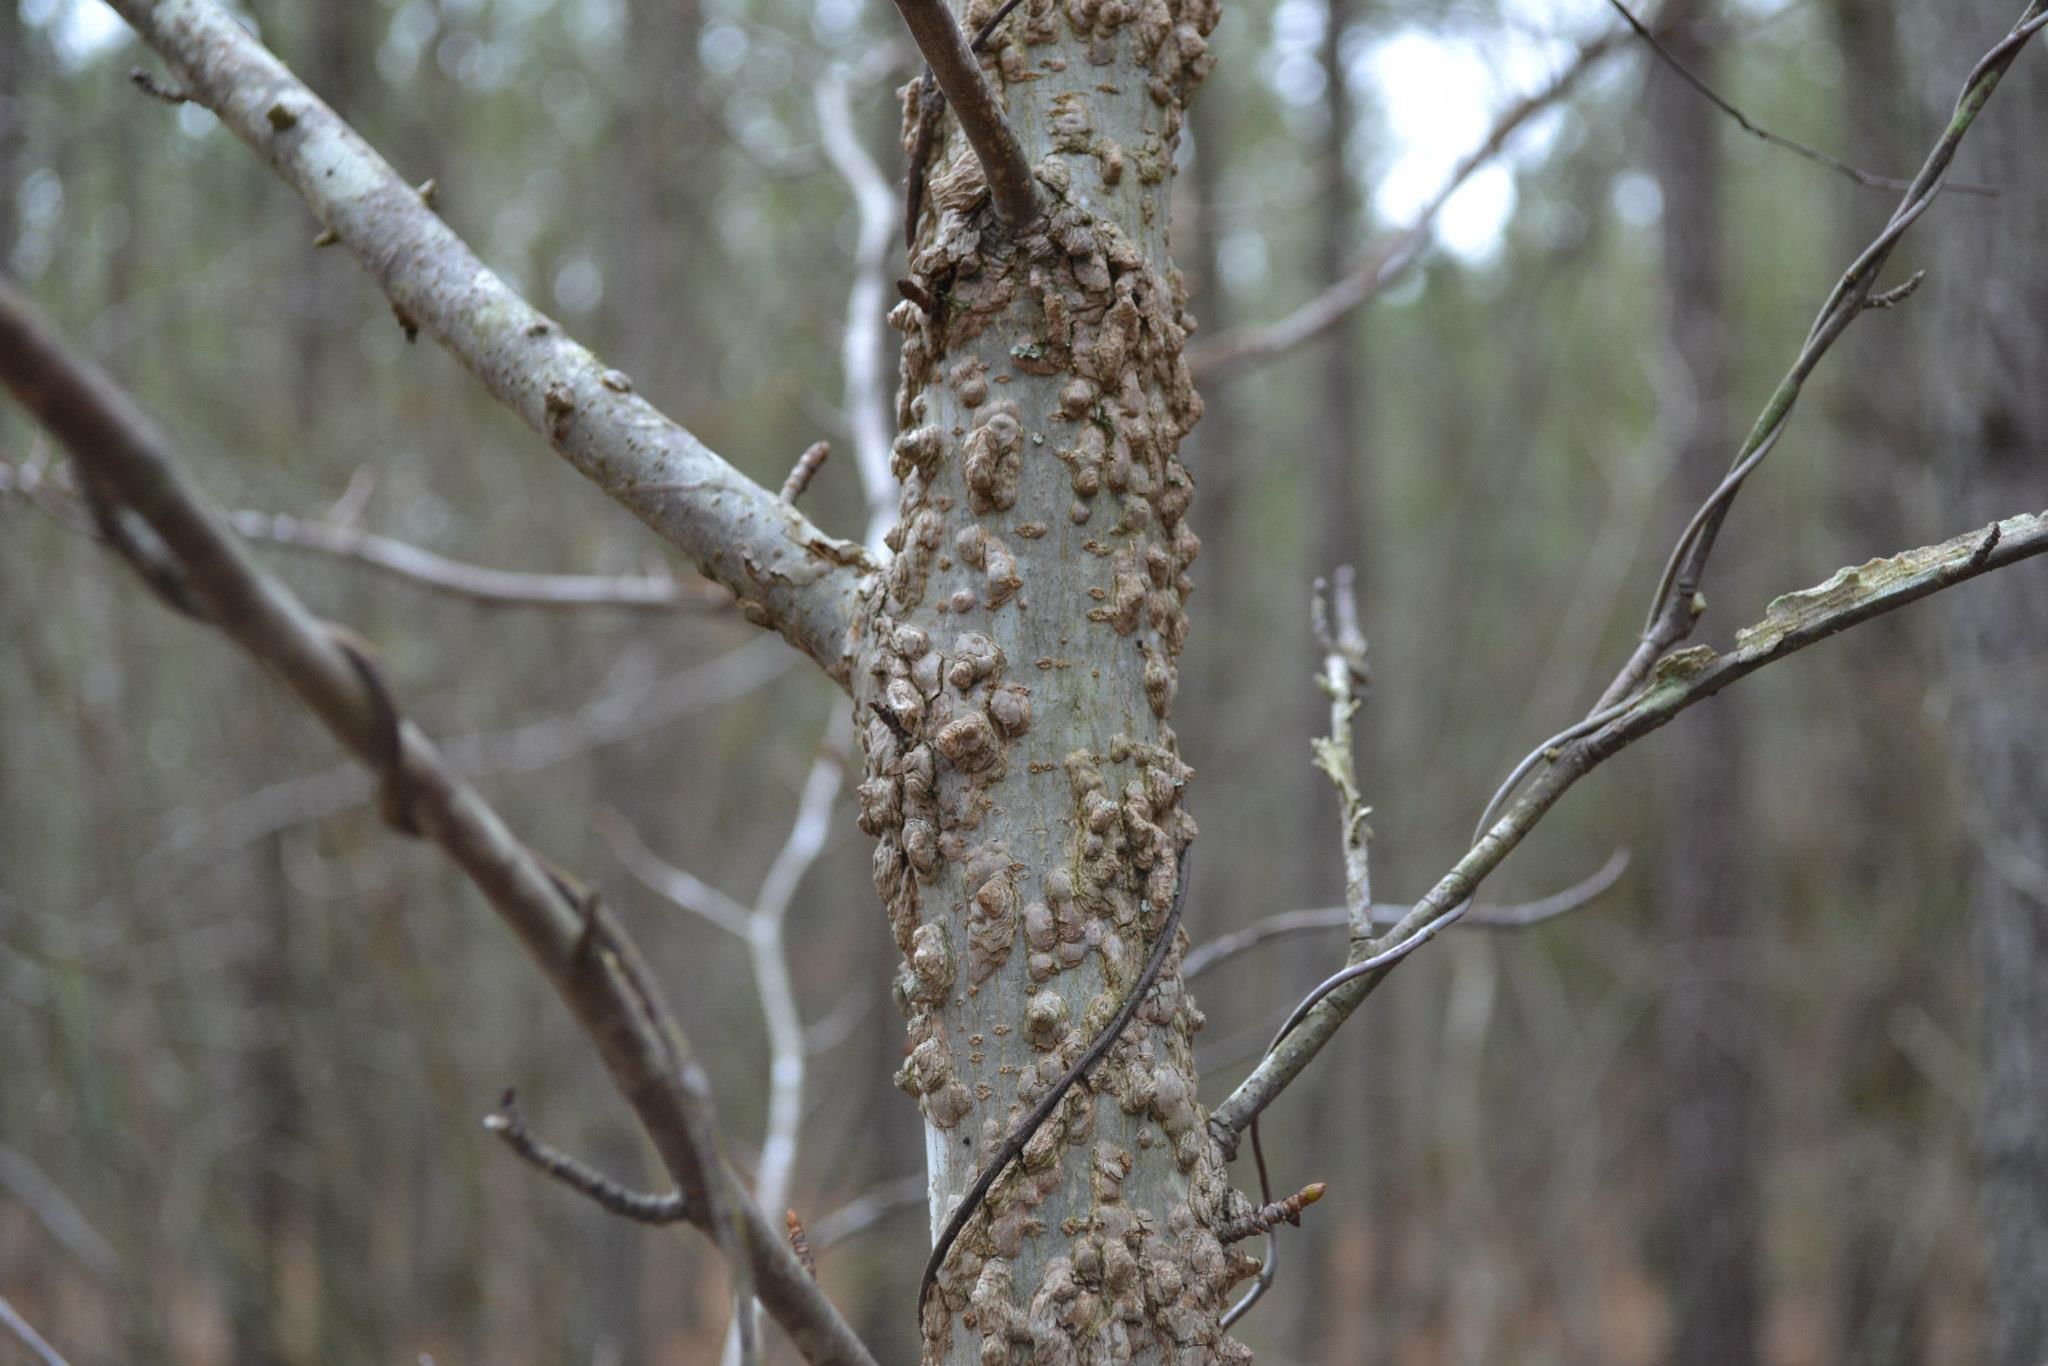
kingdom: Plantae
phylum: Tracheophyta
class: Magnoliopsida
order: Saxifragales
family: Altingiaceae
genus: Liquidambar
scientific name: Liquidambar styraciflua
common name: Sweet gum
